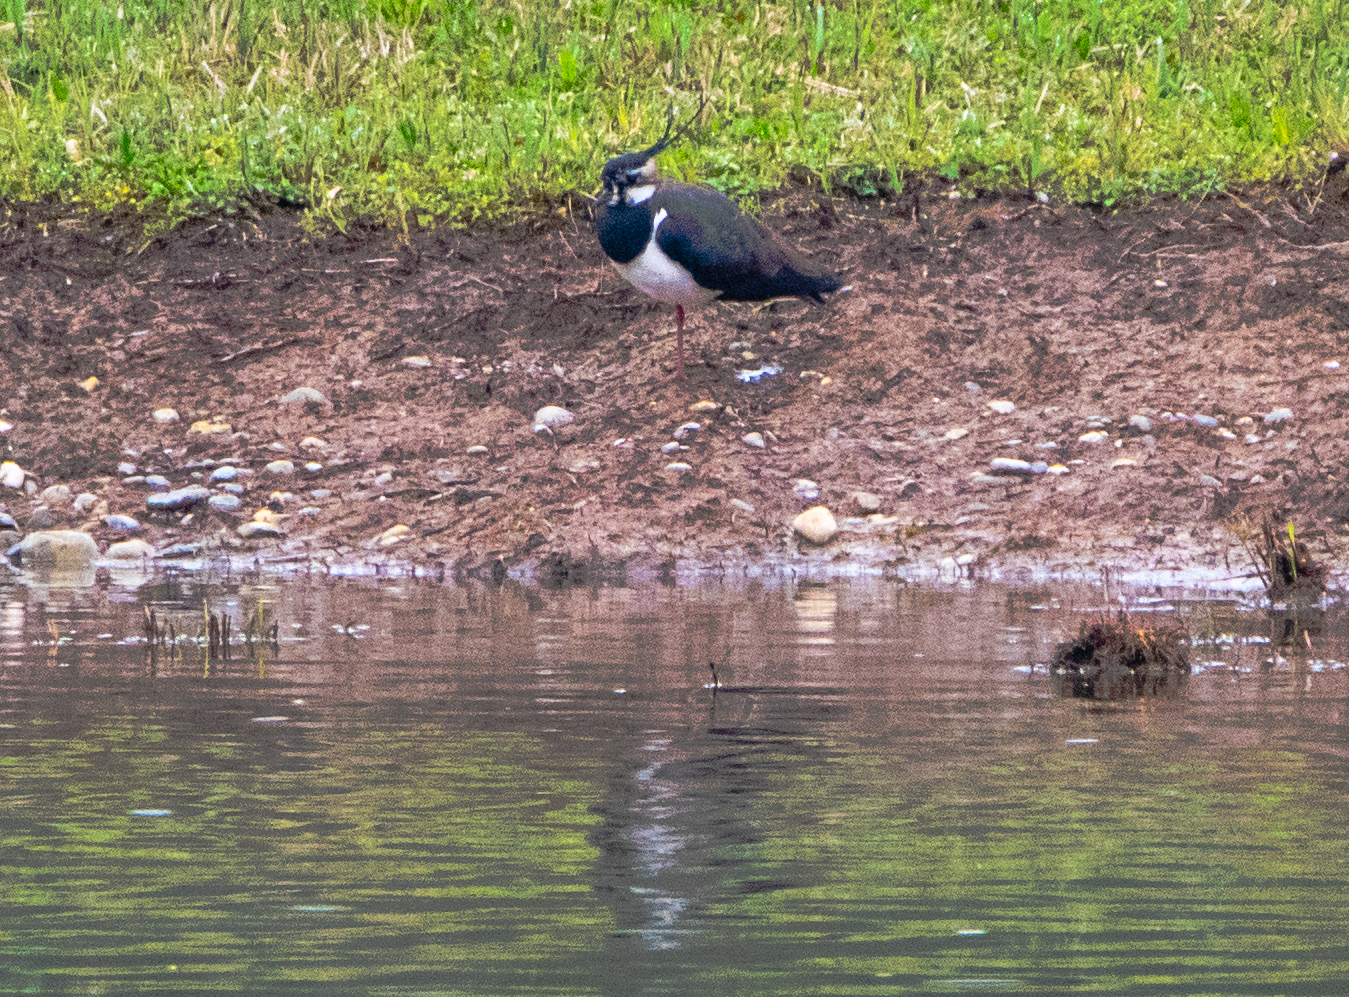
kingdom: Animalia
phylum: Chordata
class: Aves
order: Charadriiformes
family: Charadriidae
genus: Vanellus
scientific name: Vanellus vanellus
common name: Northern lapwing
